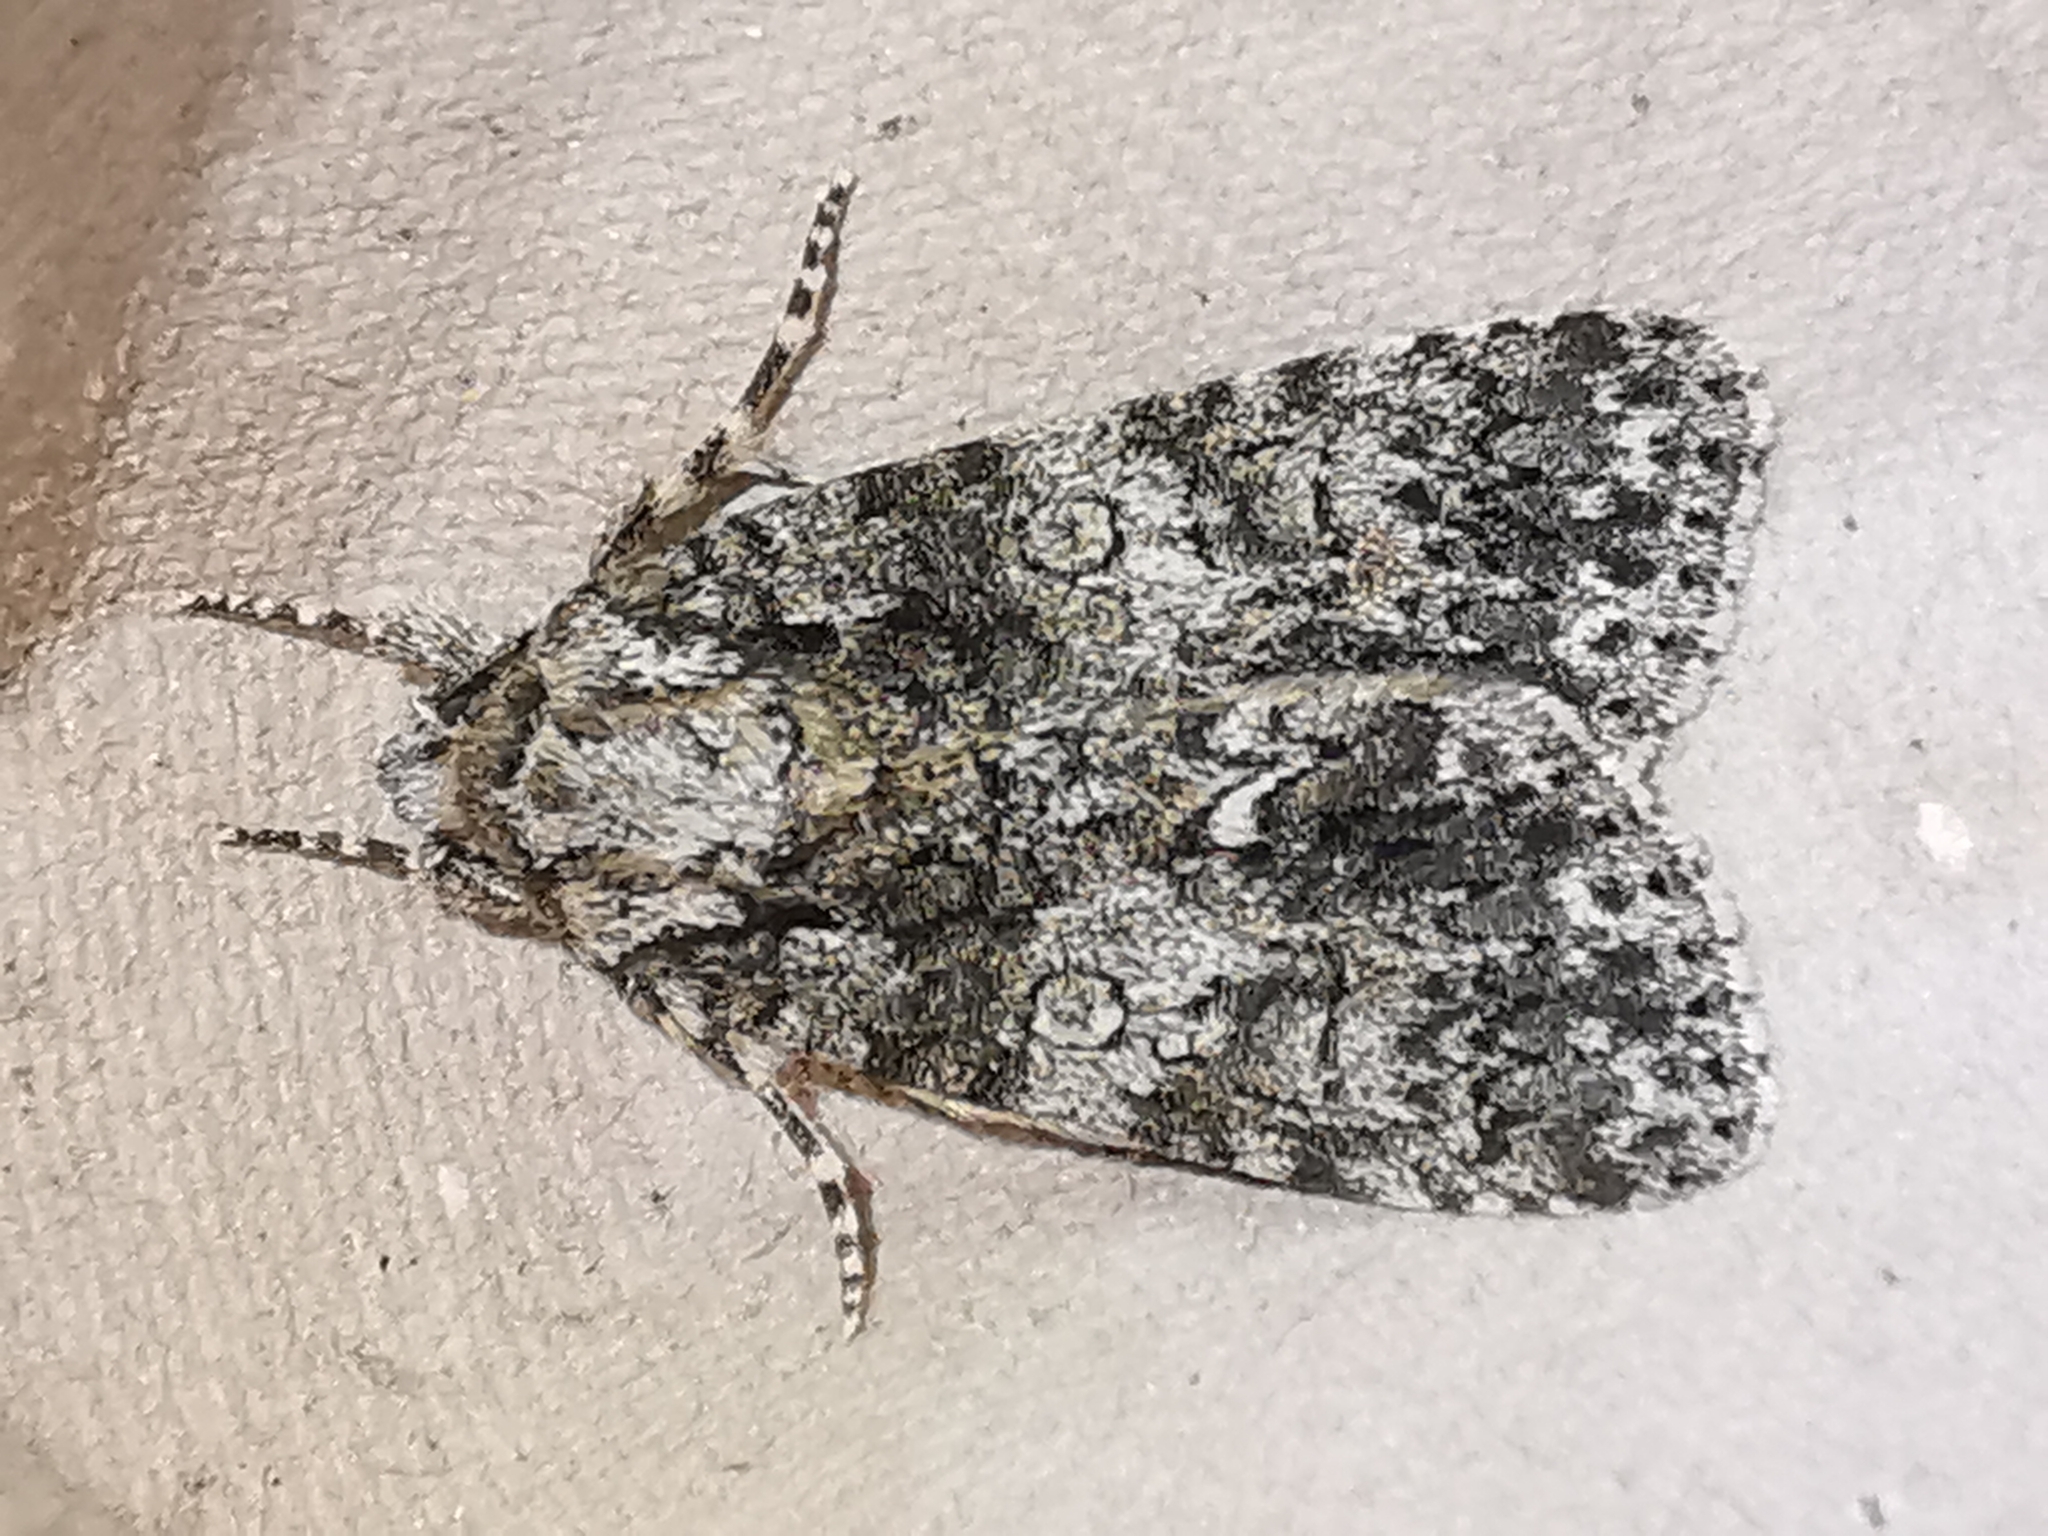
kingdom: Animalia
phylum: Arthropoda
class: Insecta
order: Lepidoptera
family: Noctuidae
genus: Acronicta
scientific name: Acronicta rumicis
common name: Knot grass
